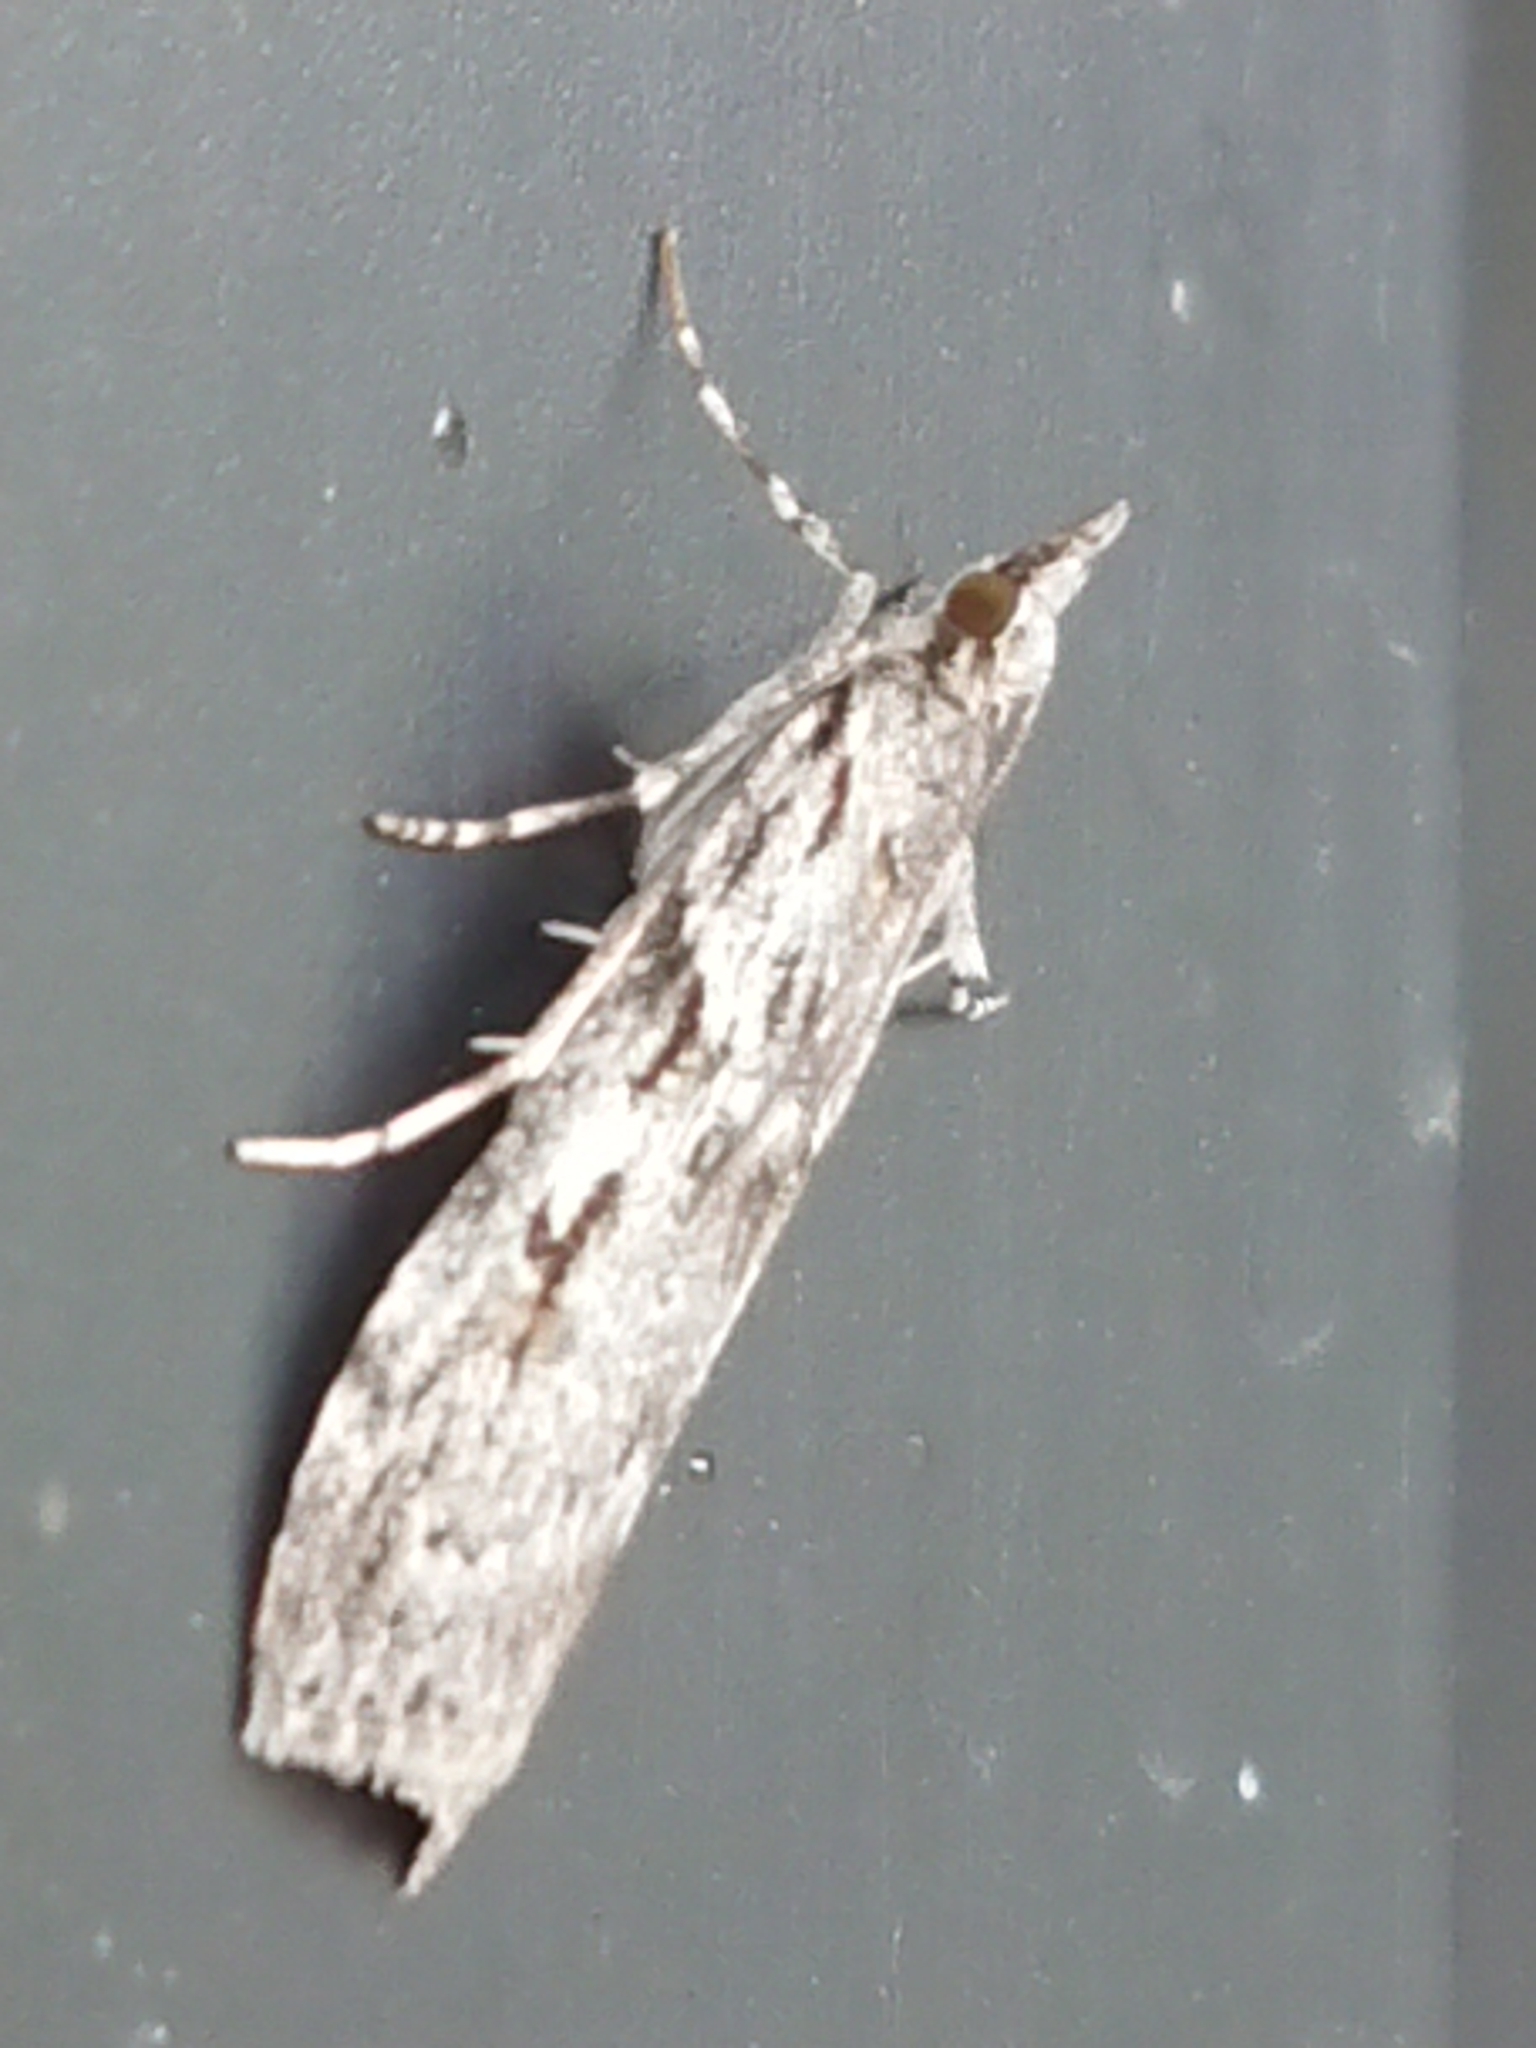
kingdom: Animalia
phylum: Arthropoda
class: Insecta
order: Lepidoptera
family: Crambidae
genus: Scoparia
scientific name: Scoparia halopis
